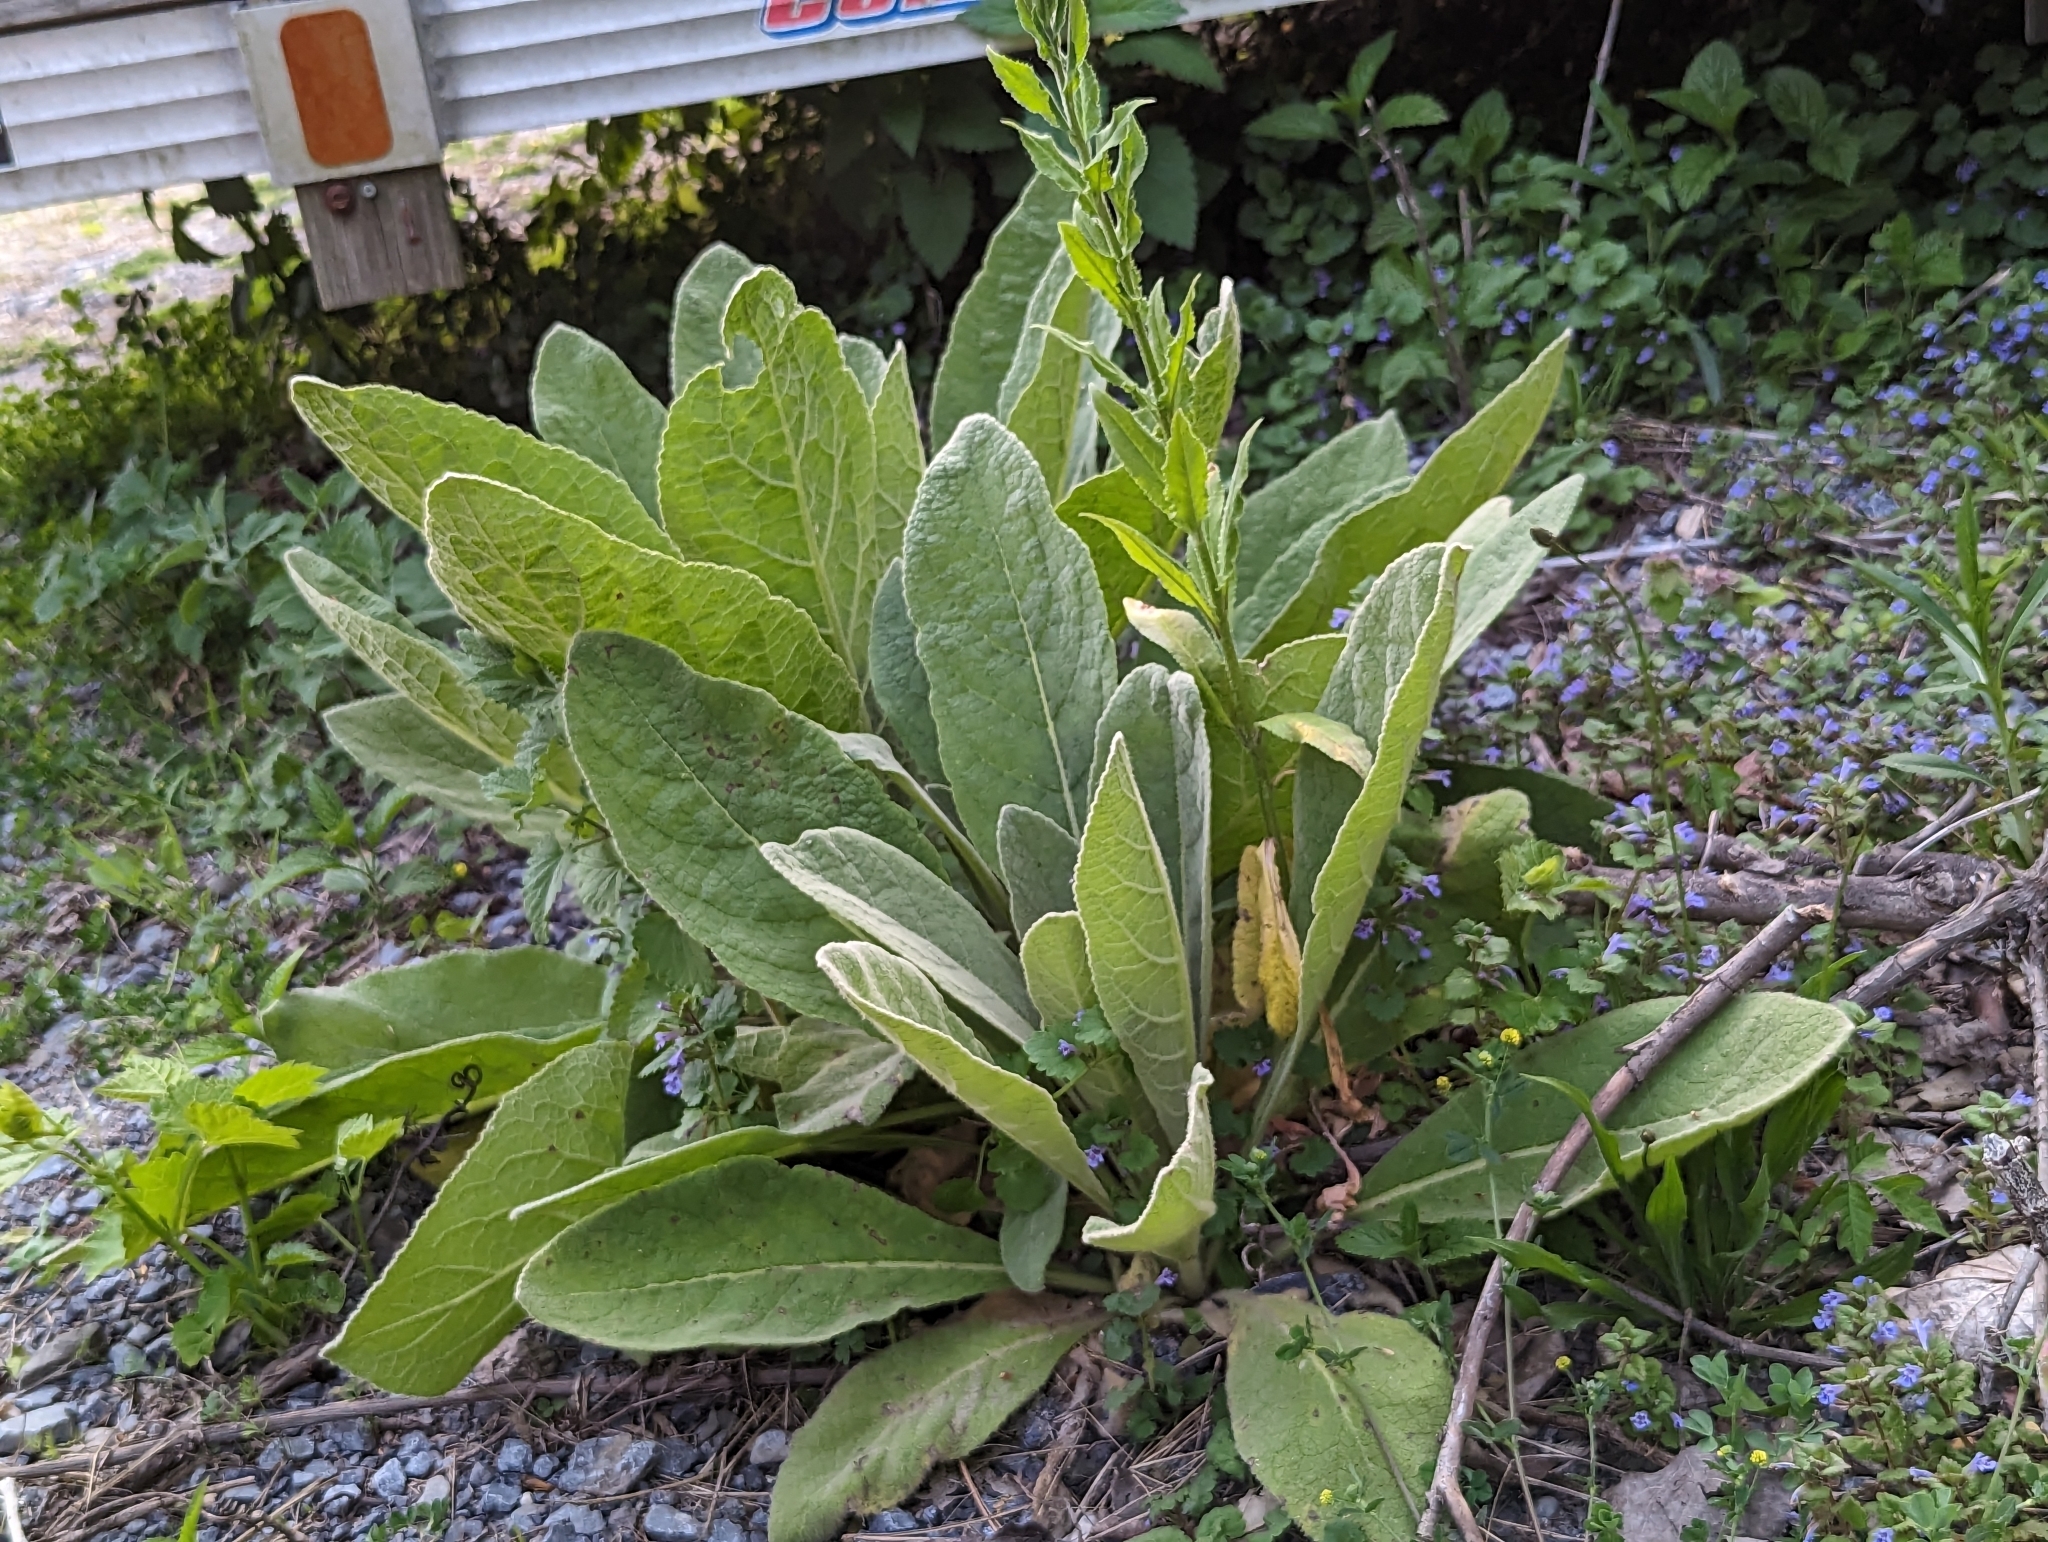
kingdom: Plantae
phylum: Tracheophyta
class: Magnoliopsida
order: Lamiales
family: Scrophulariaceae
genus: Verbascum
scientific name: Verbascum thapsus
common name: Common mullein
